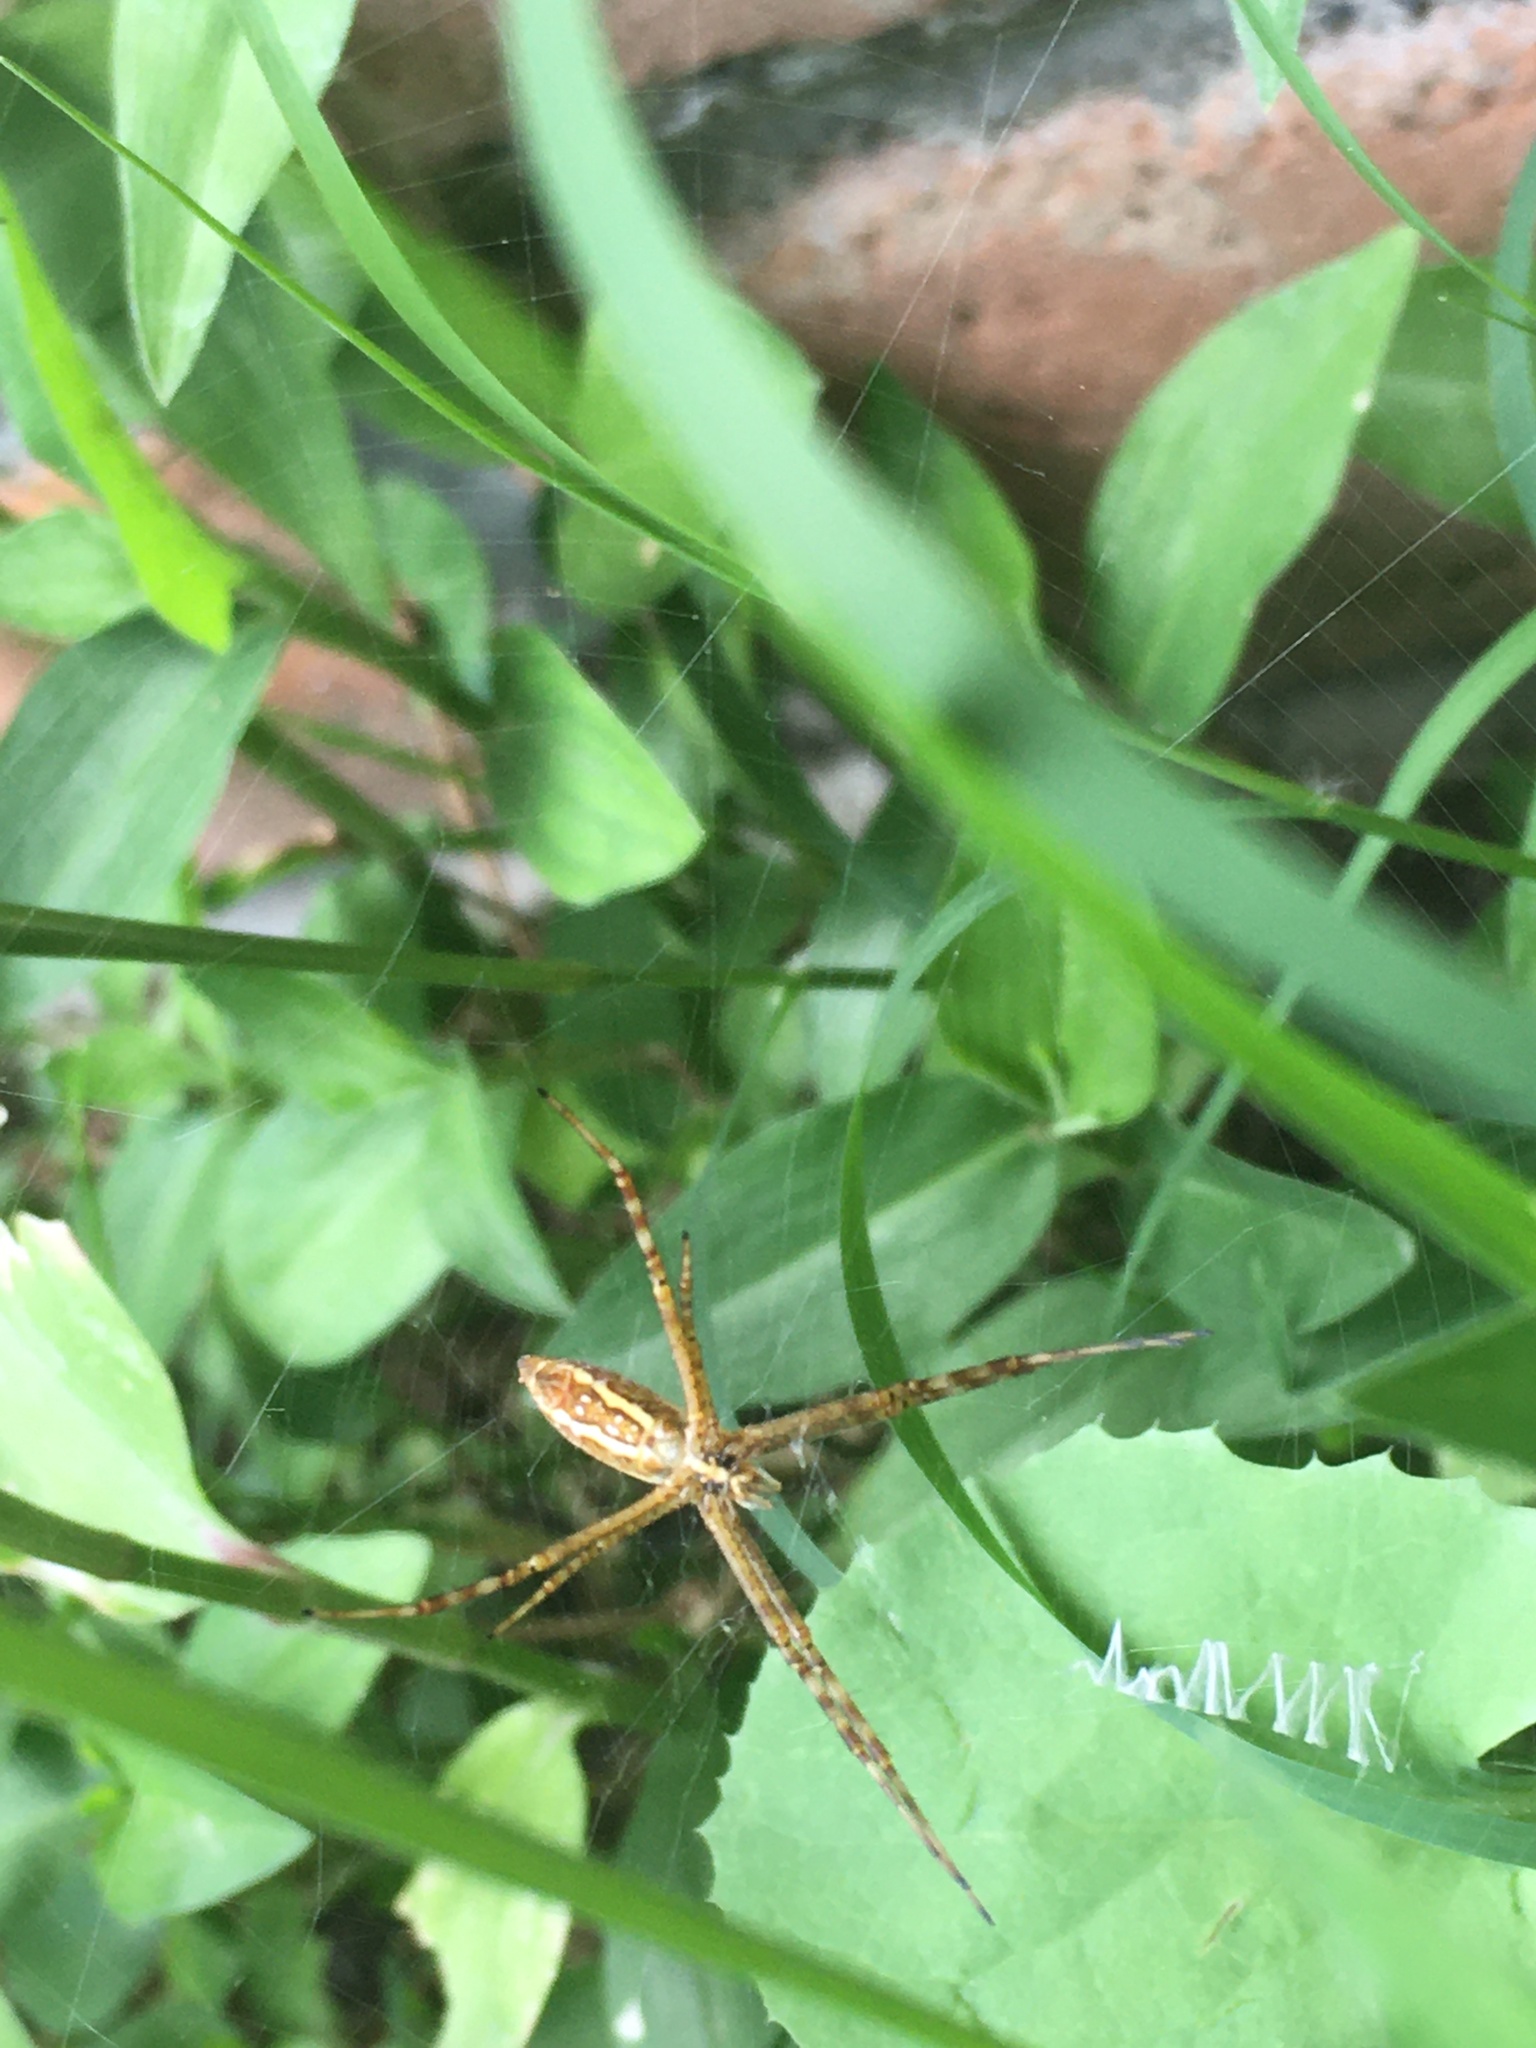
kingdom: Animalia
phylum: Arthropoda
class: Arachnida
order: Araneae
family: Araneidae
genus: Argiope
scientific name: Argiope trifasciata
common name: Banded garden spider
